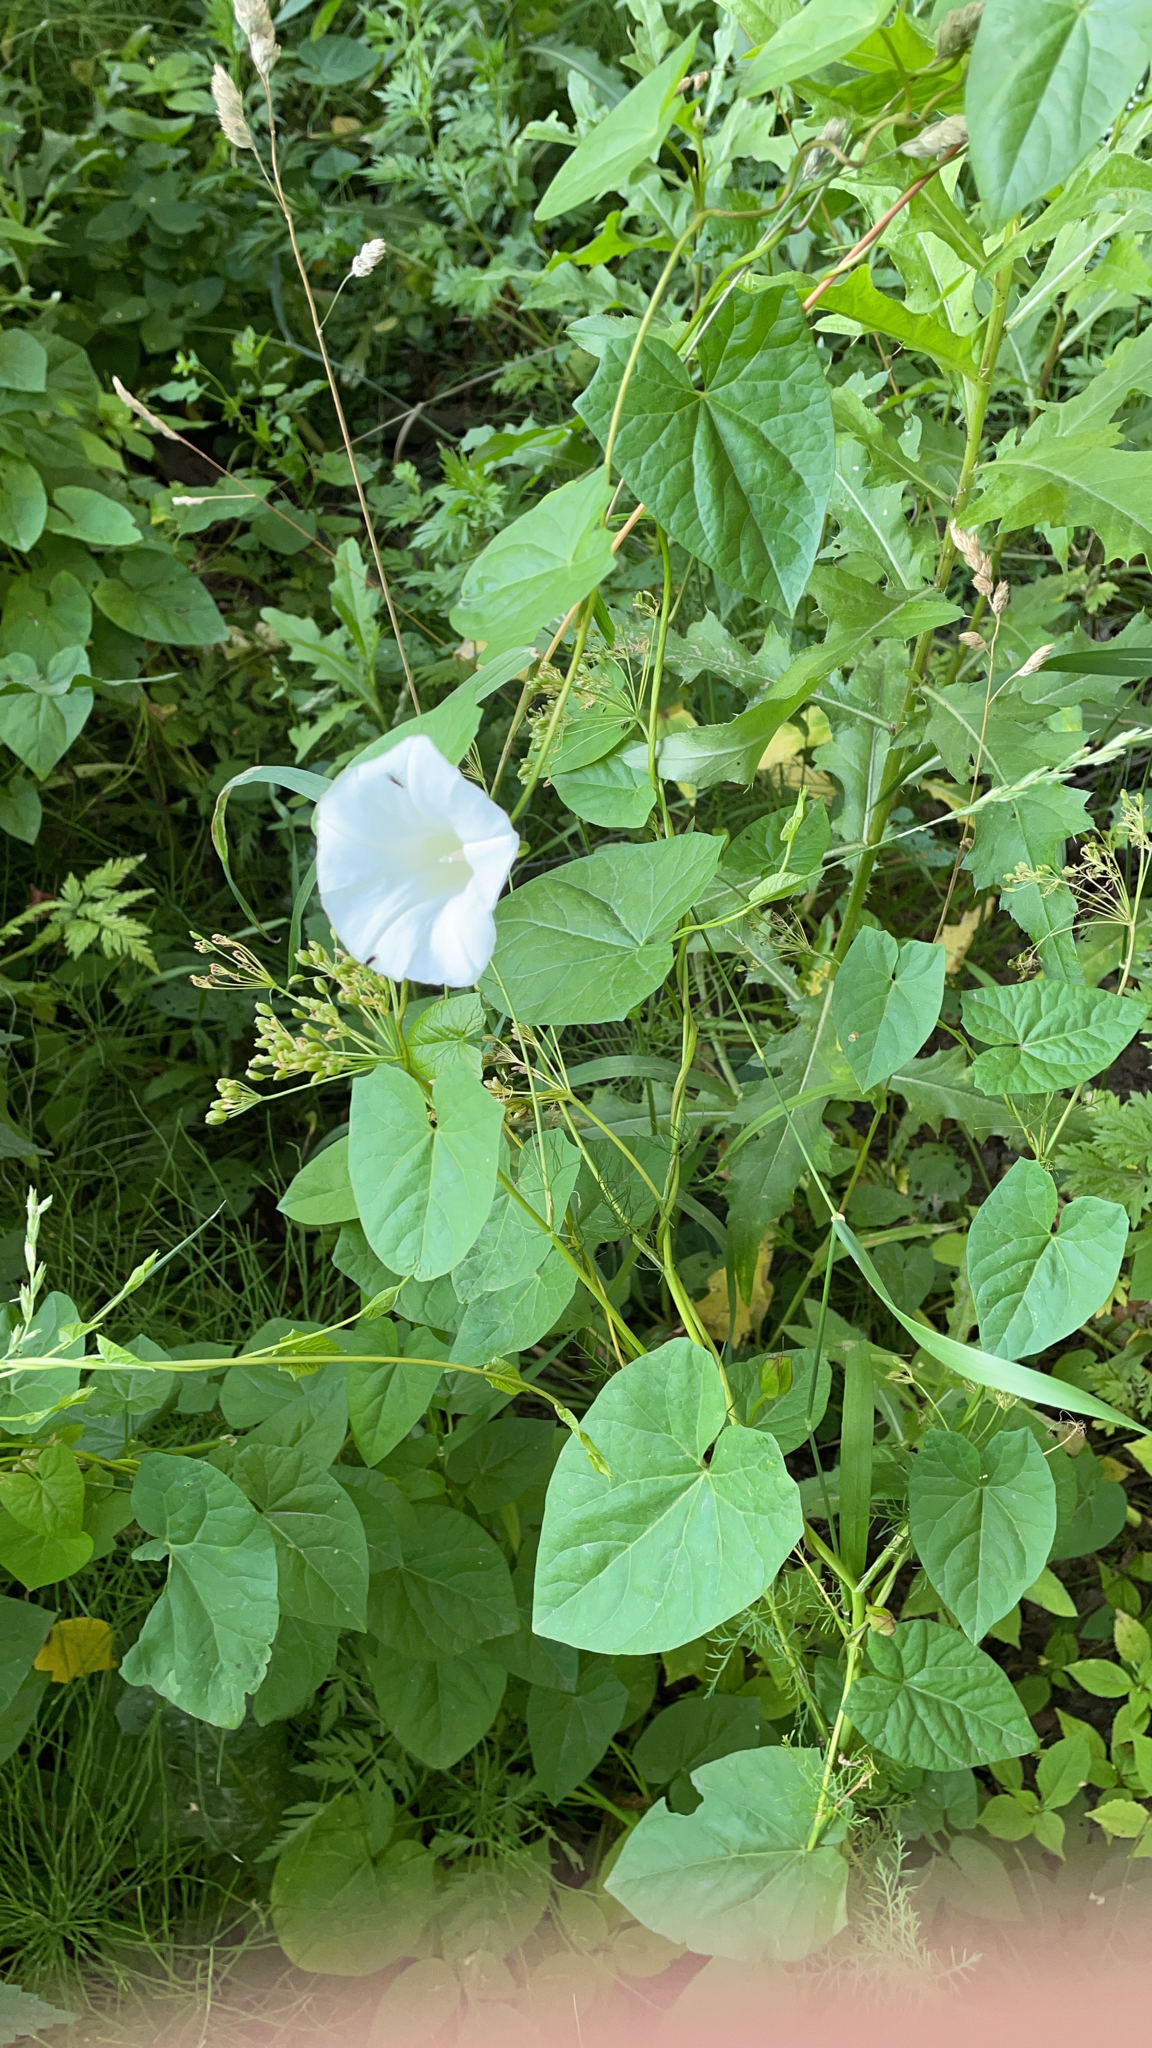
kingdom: Plantae
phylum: Tracheophyta
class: Magnoliopsida
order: Solanales
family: Convolvulaceae
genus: Calystegia
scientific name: Calystegia sepium
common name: Hedge bindweed
